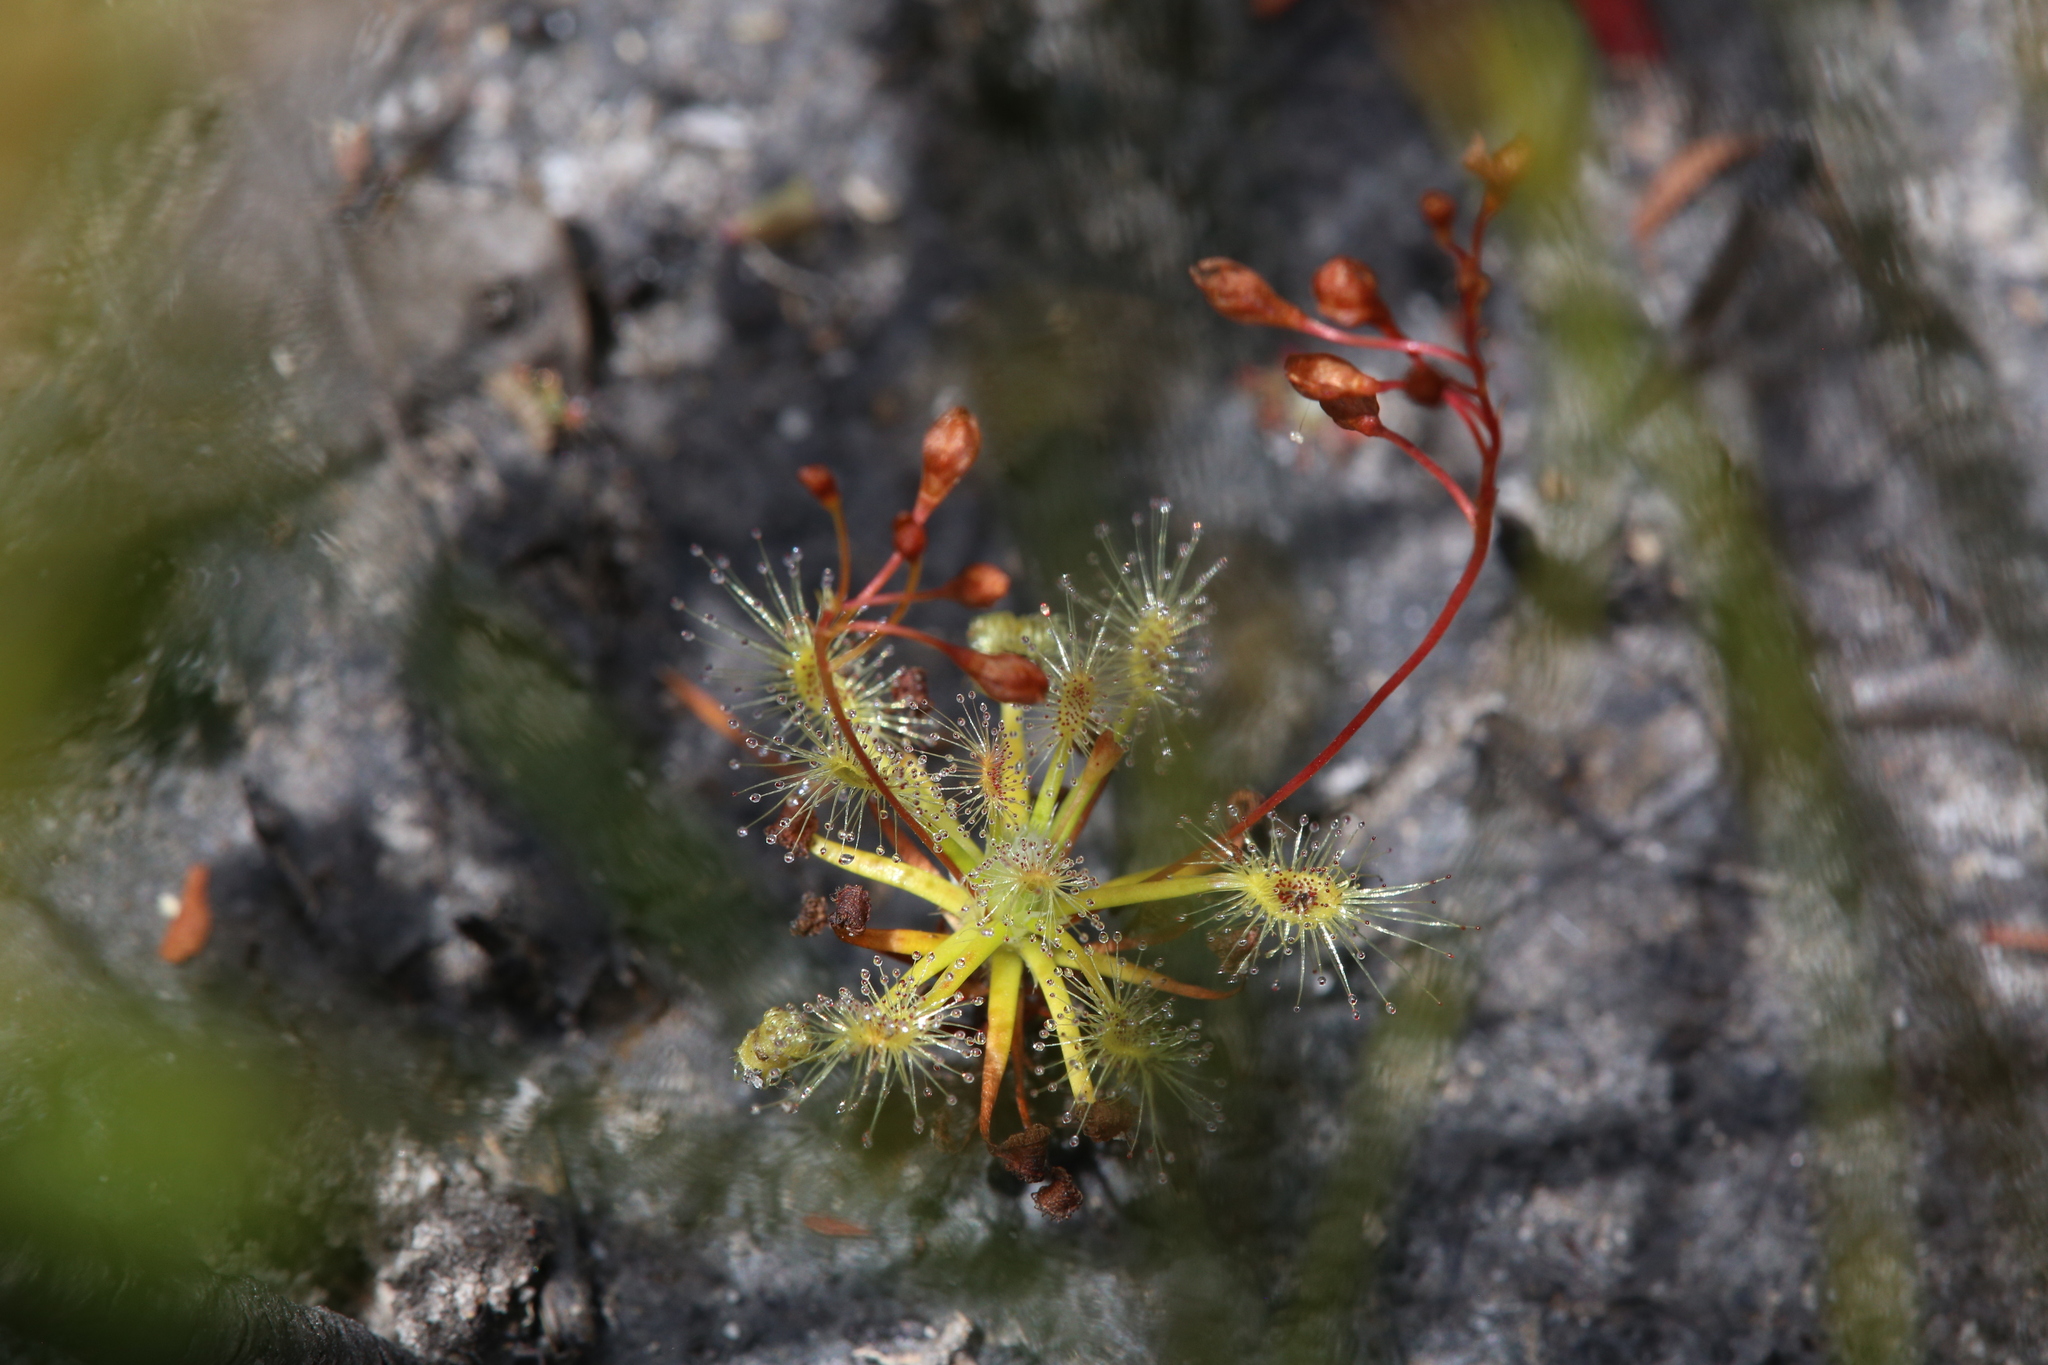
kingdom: Plantae
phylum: Tracheophyta
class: Magnoliopsida
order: Caryophyllales
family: Droseraceae
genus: Drosera
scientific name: Drosera dichrosepala
